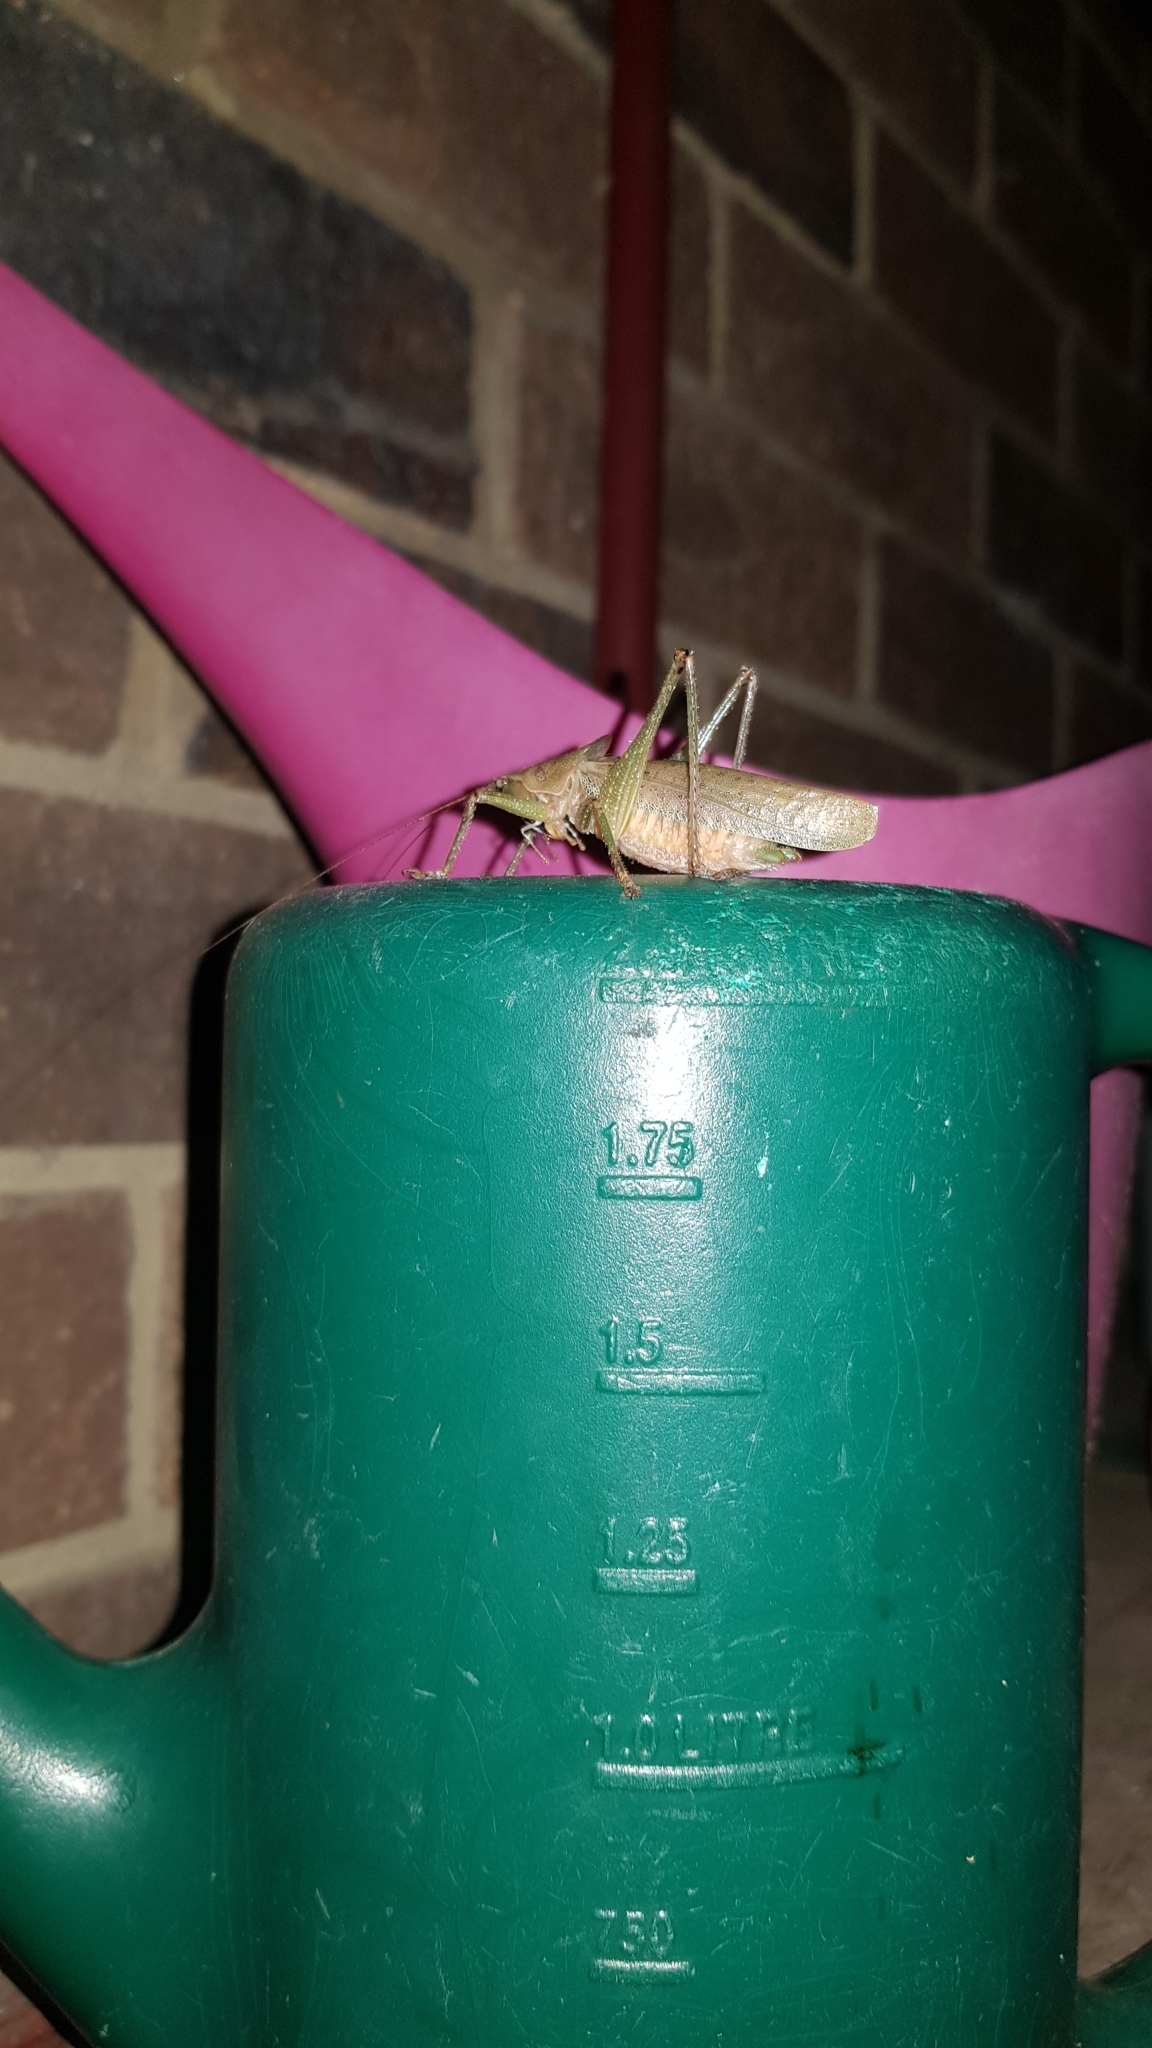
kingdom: Animalia
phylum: Arthropoda
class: Insecta
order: Orthoptera
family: Tettigoniidae
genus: Austrosalomona
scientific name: Austrosalomona falcata
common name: Olive-green coastal katydid
